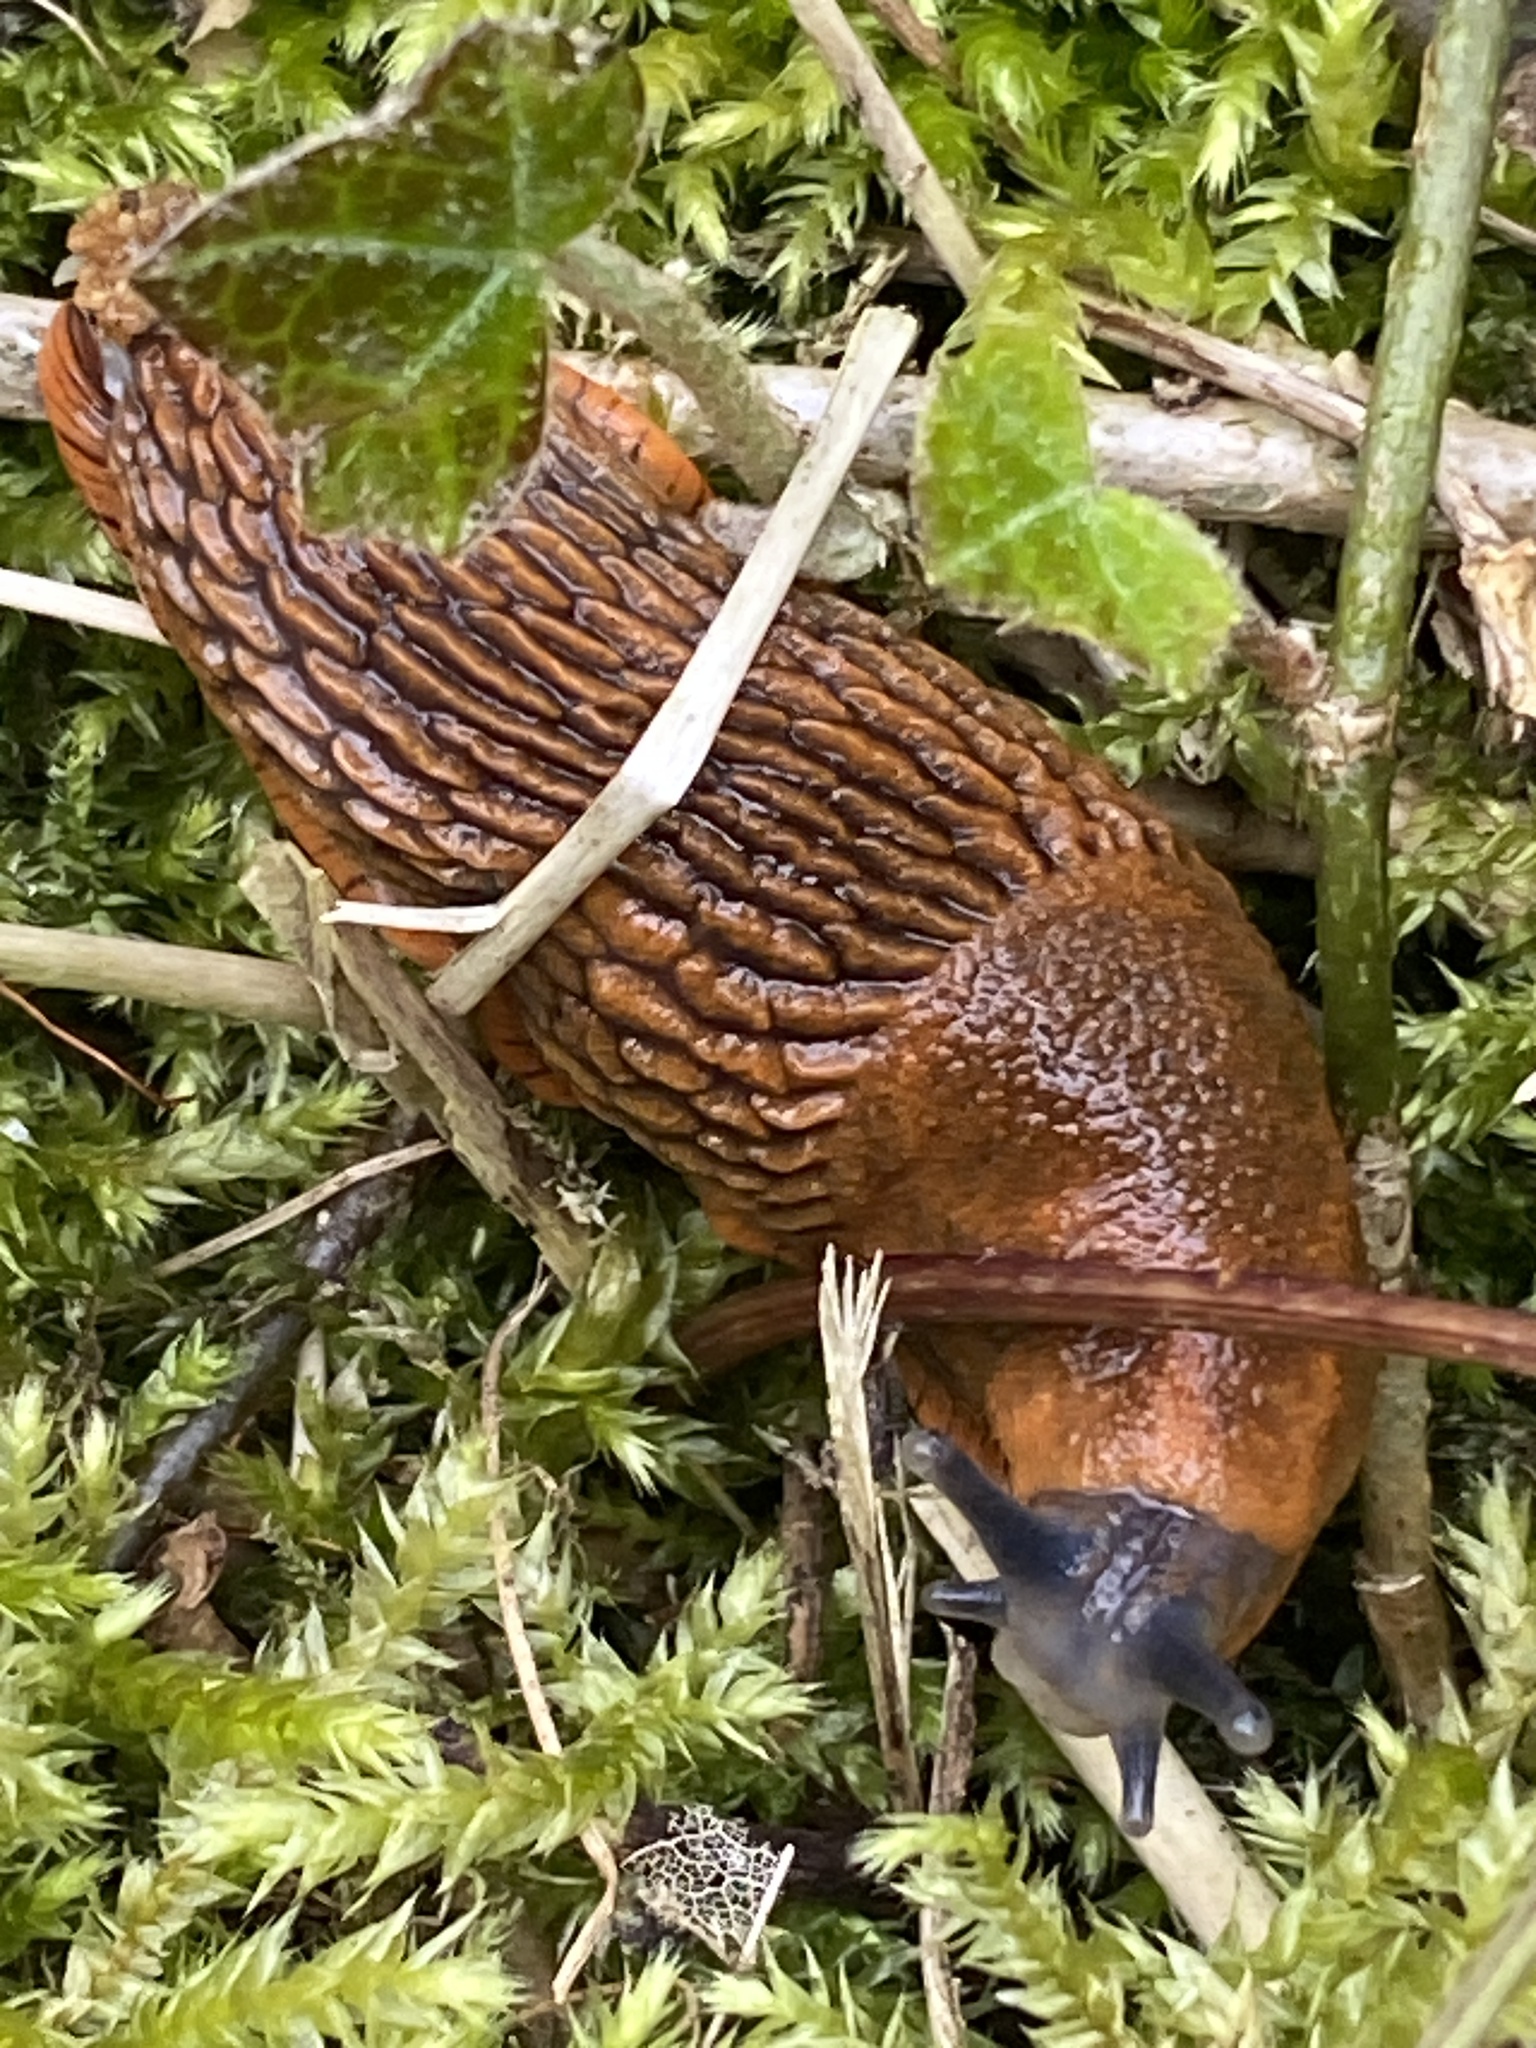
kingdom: Animalia
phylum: Mollusca
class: Gastropoda
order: Stylommatophora
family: Arionidae
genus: Arion
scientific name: Arion vulgaris
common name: Lusitanian slug
